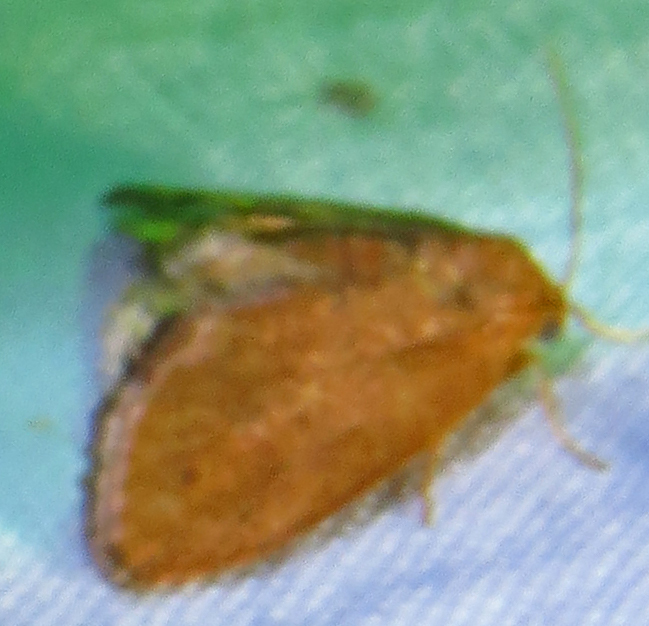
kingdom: Animalia
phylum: Arthropoda
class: Insecta
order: Lepidoptera
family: Limacodidae
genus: Heterogenea
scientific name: Heterogenea shurtleffi
